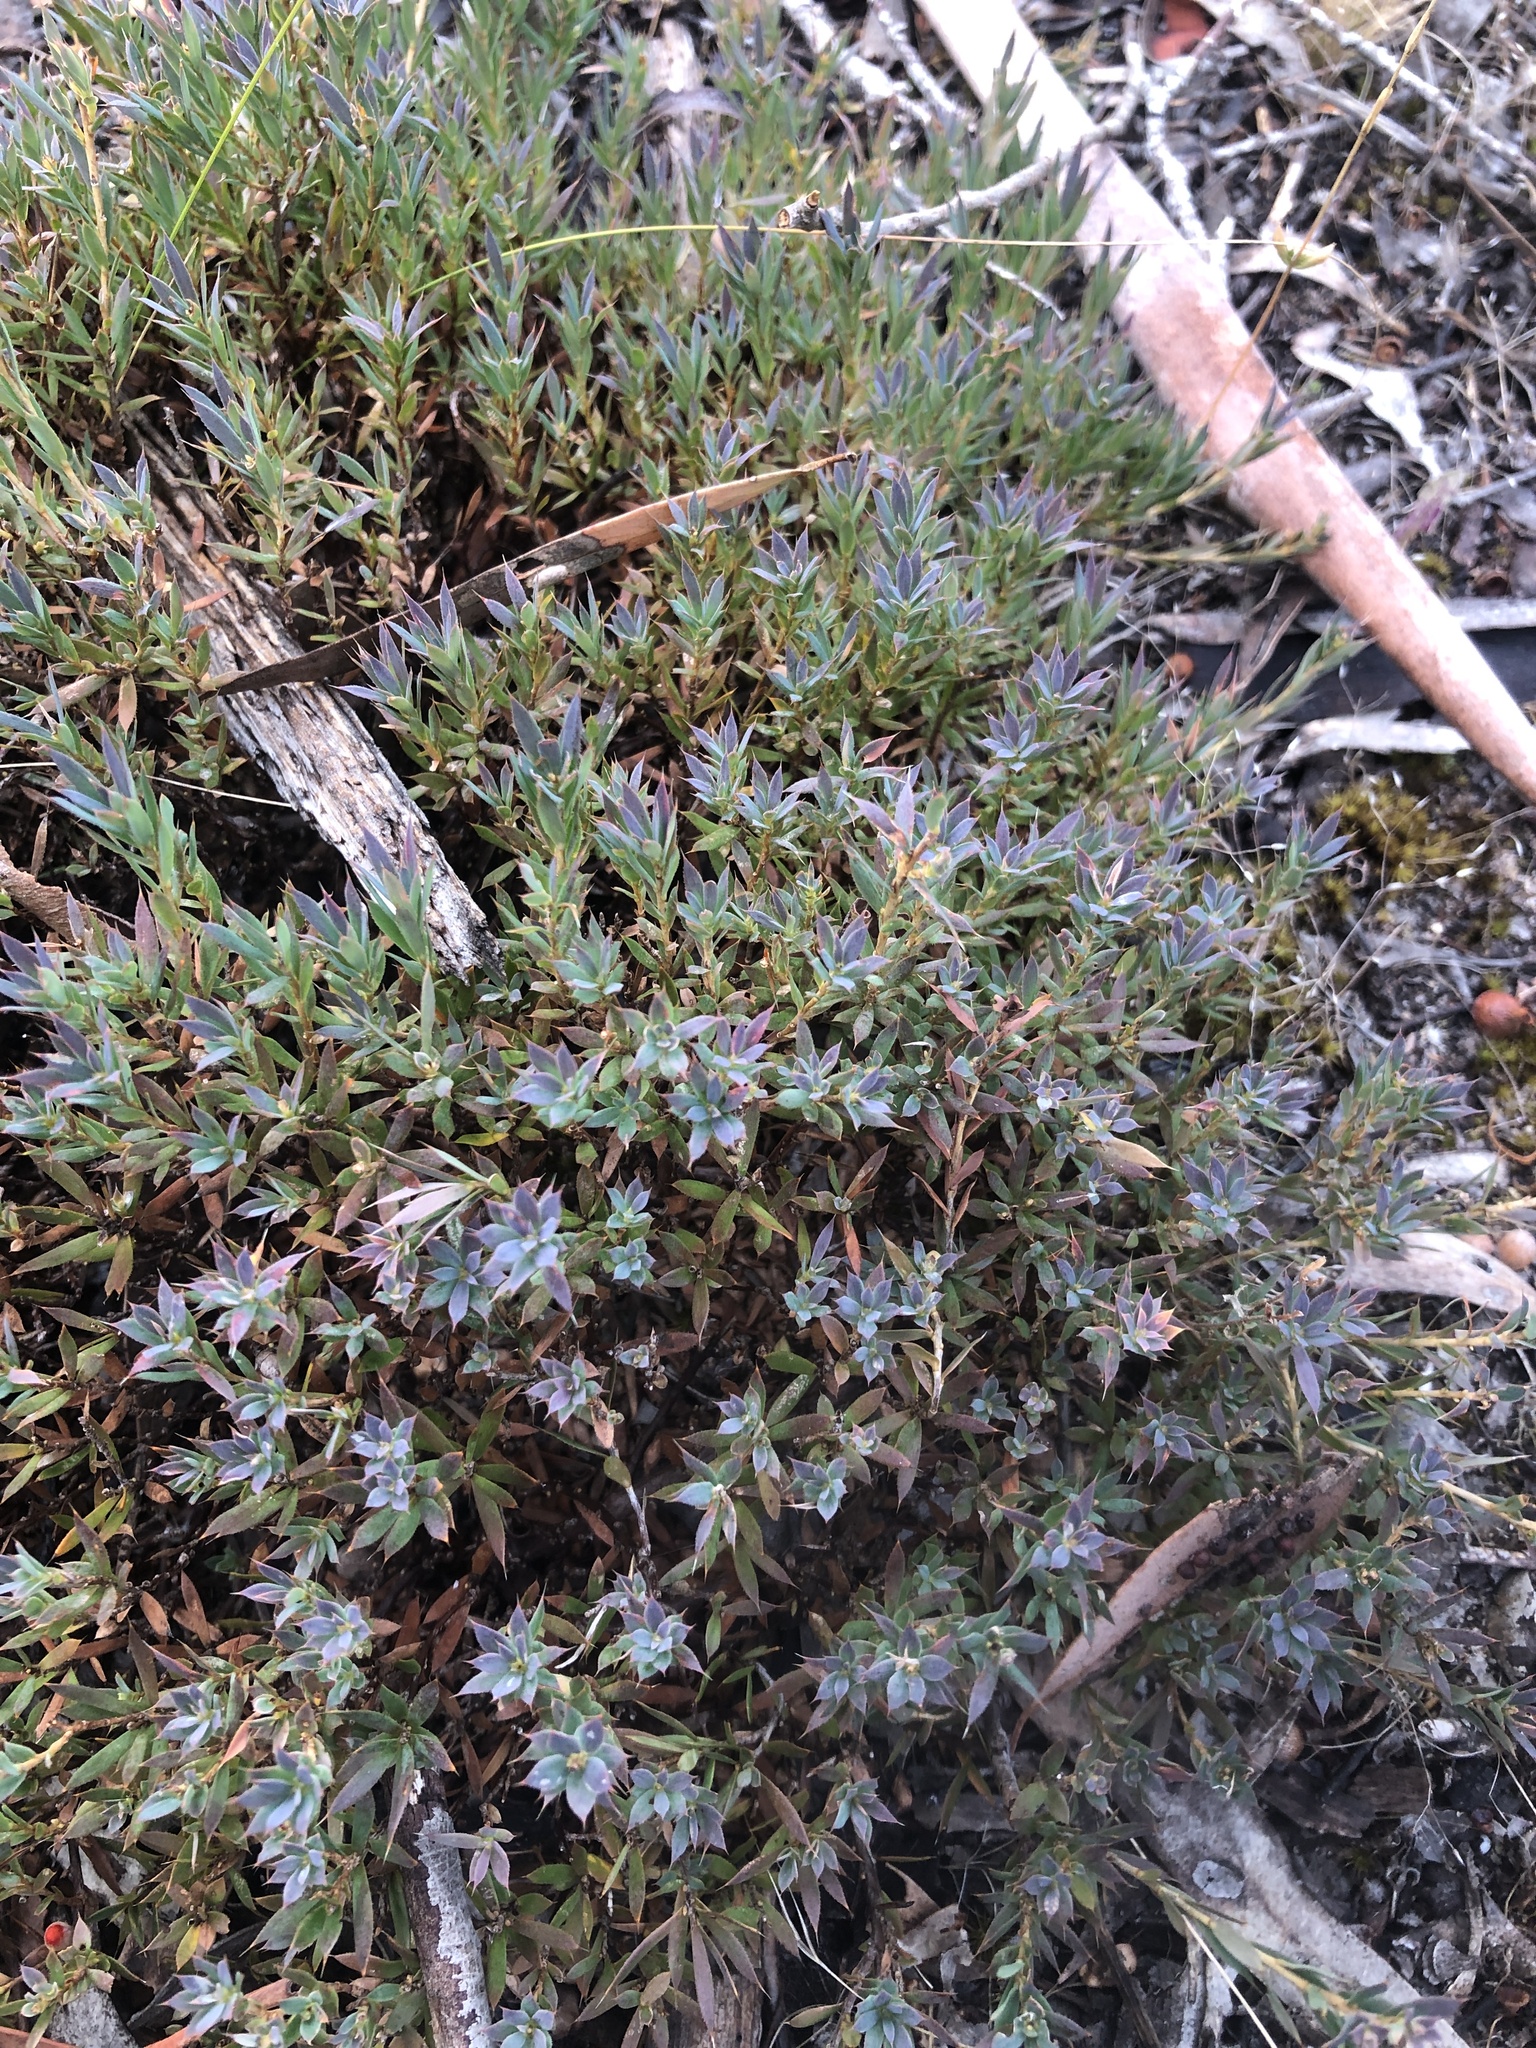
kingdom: Plantae
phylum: Tracheophyta
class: Magnoliopsida
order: Ericales
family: Ericaceae
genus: Styphelia
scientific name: Styphelia humifusa
